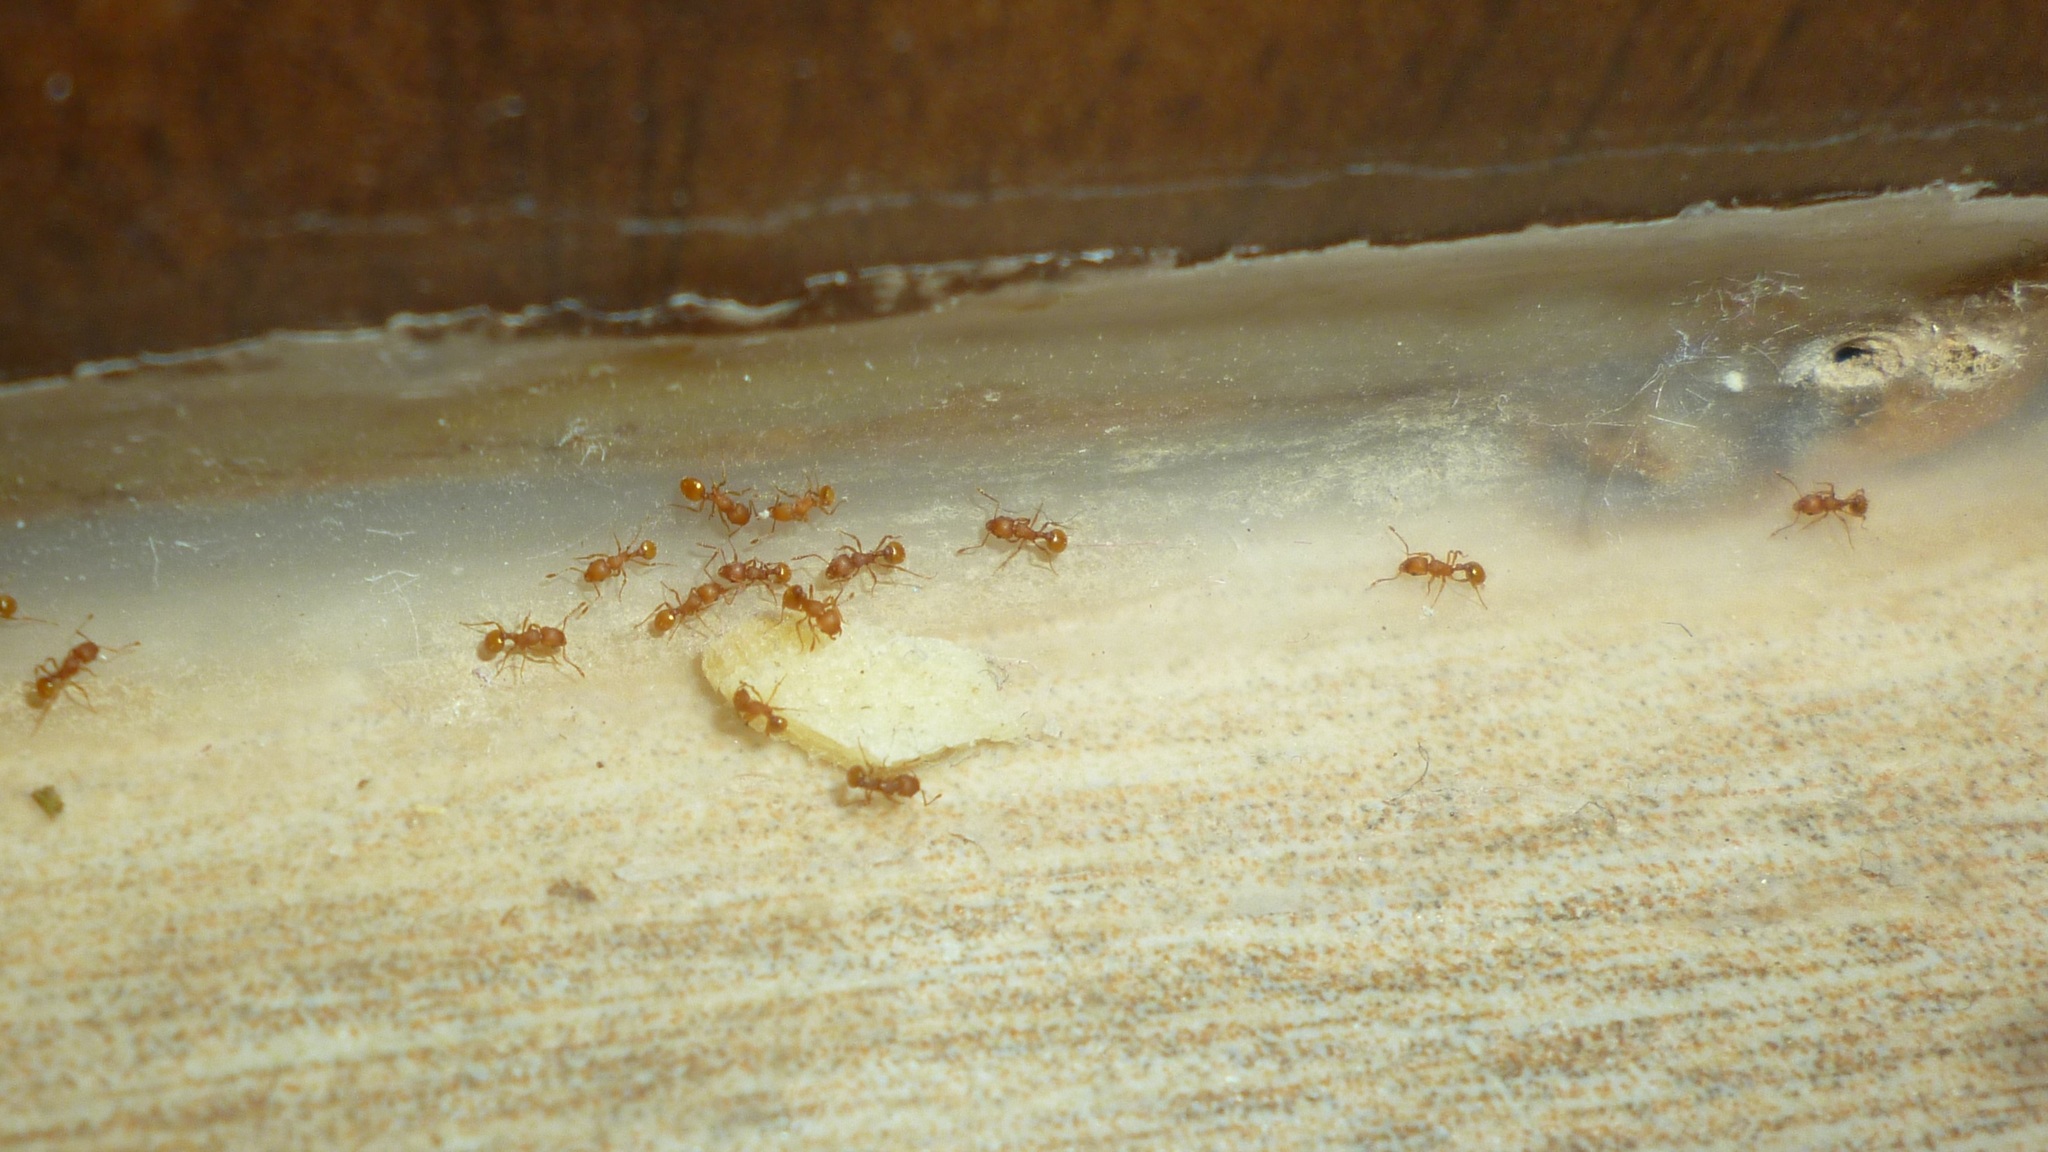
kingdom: Animalia
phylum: Arthropoda
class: Insecta
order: Hymenoptera
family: Formicidae
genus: Wasmannia
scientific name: Wasmannia auropunctata
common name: Little fire ant
